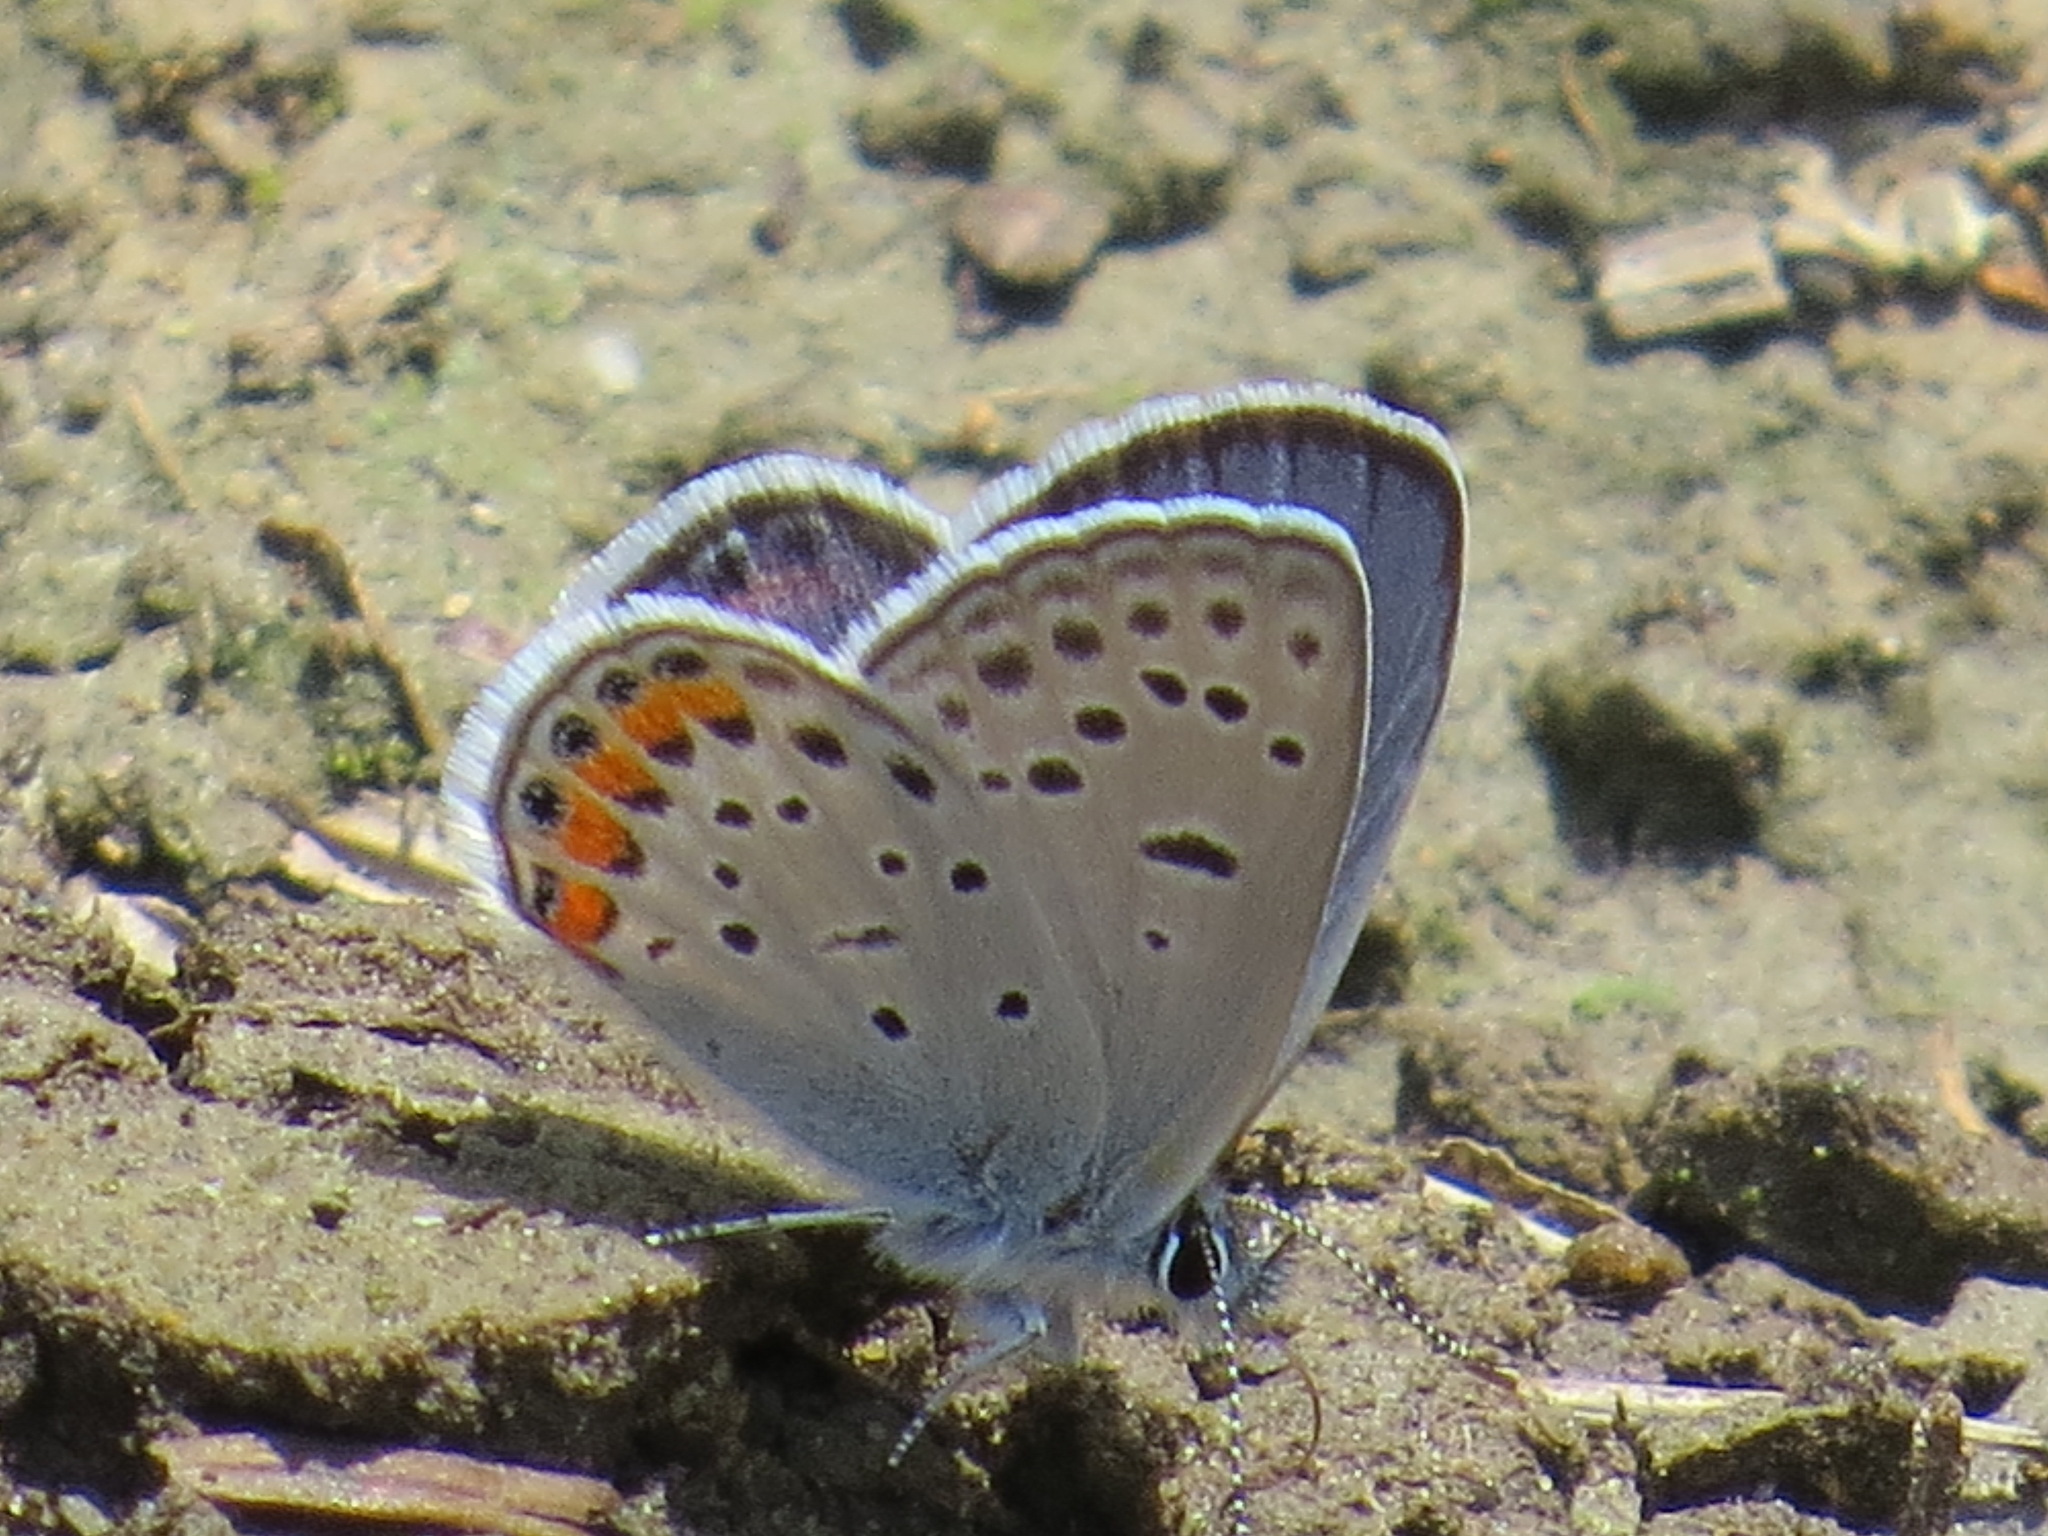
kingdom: Animalia
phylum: Arthropoda
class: Insecta
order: Lepidoptera
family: Lycaenidae
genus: Icaricia
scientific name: Icaricia acmon
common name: Acmon blue
